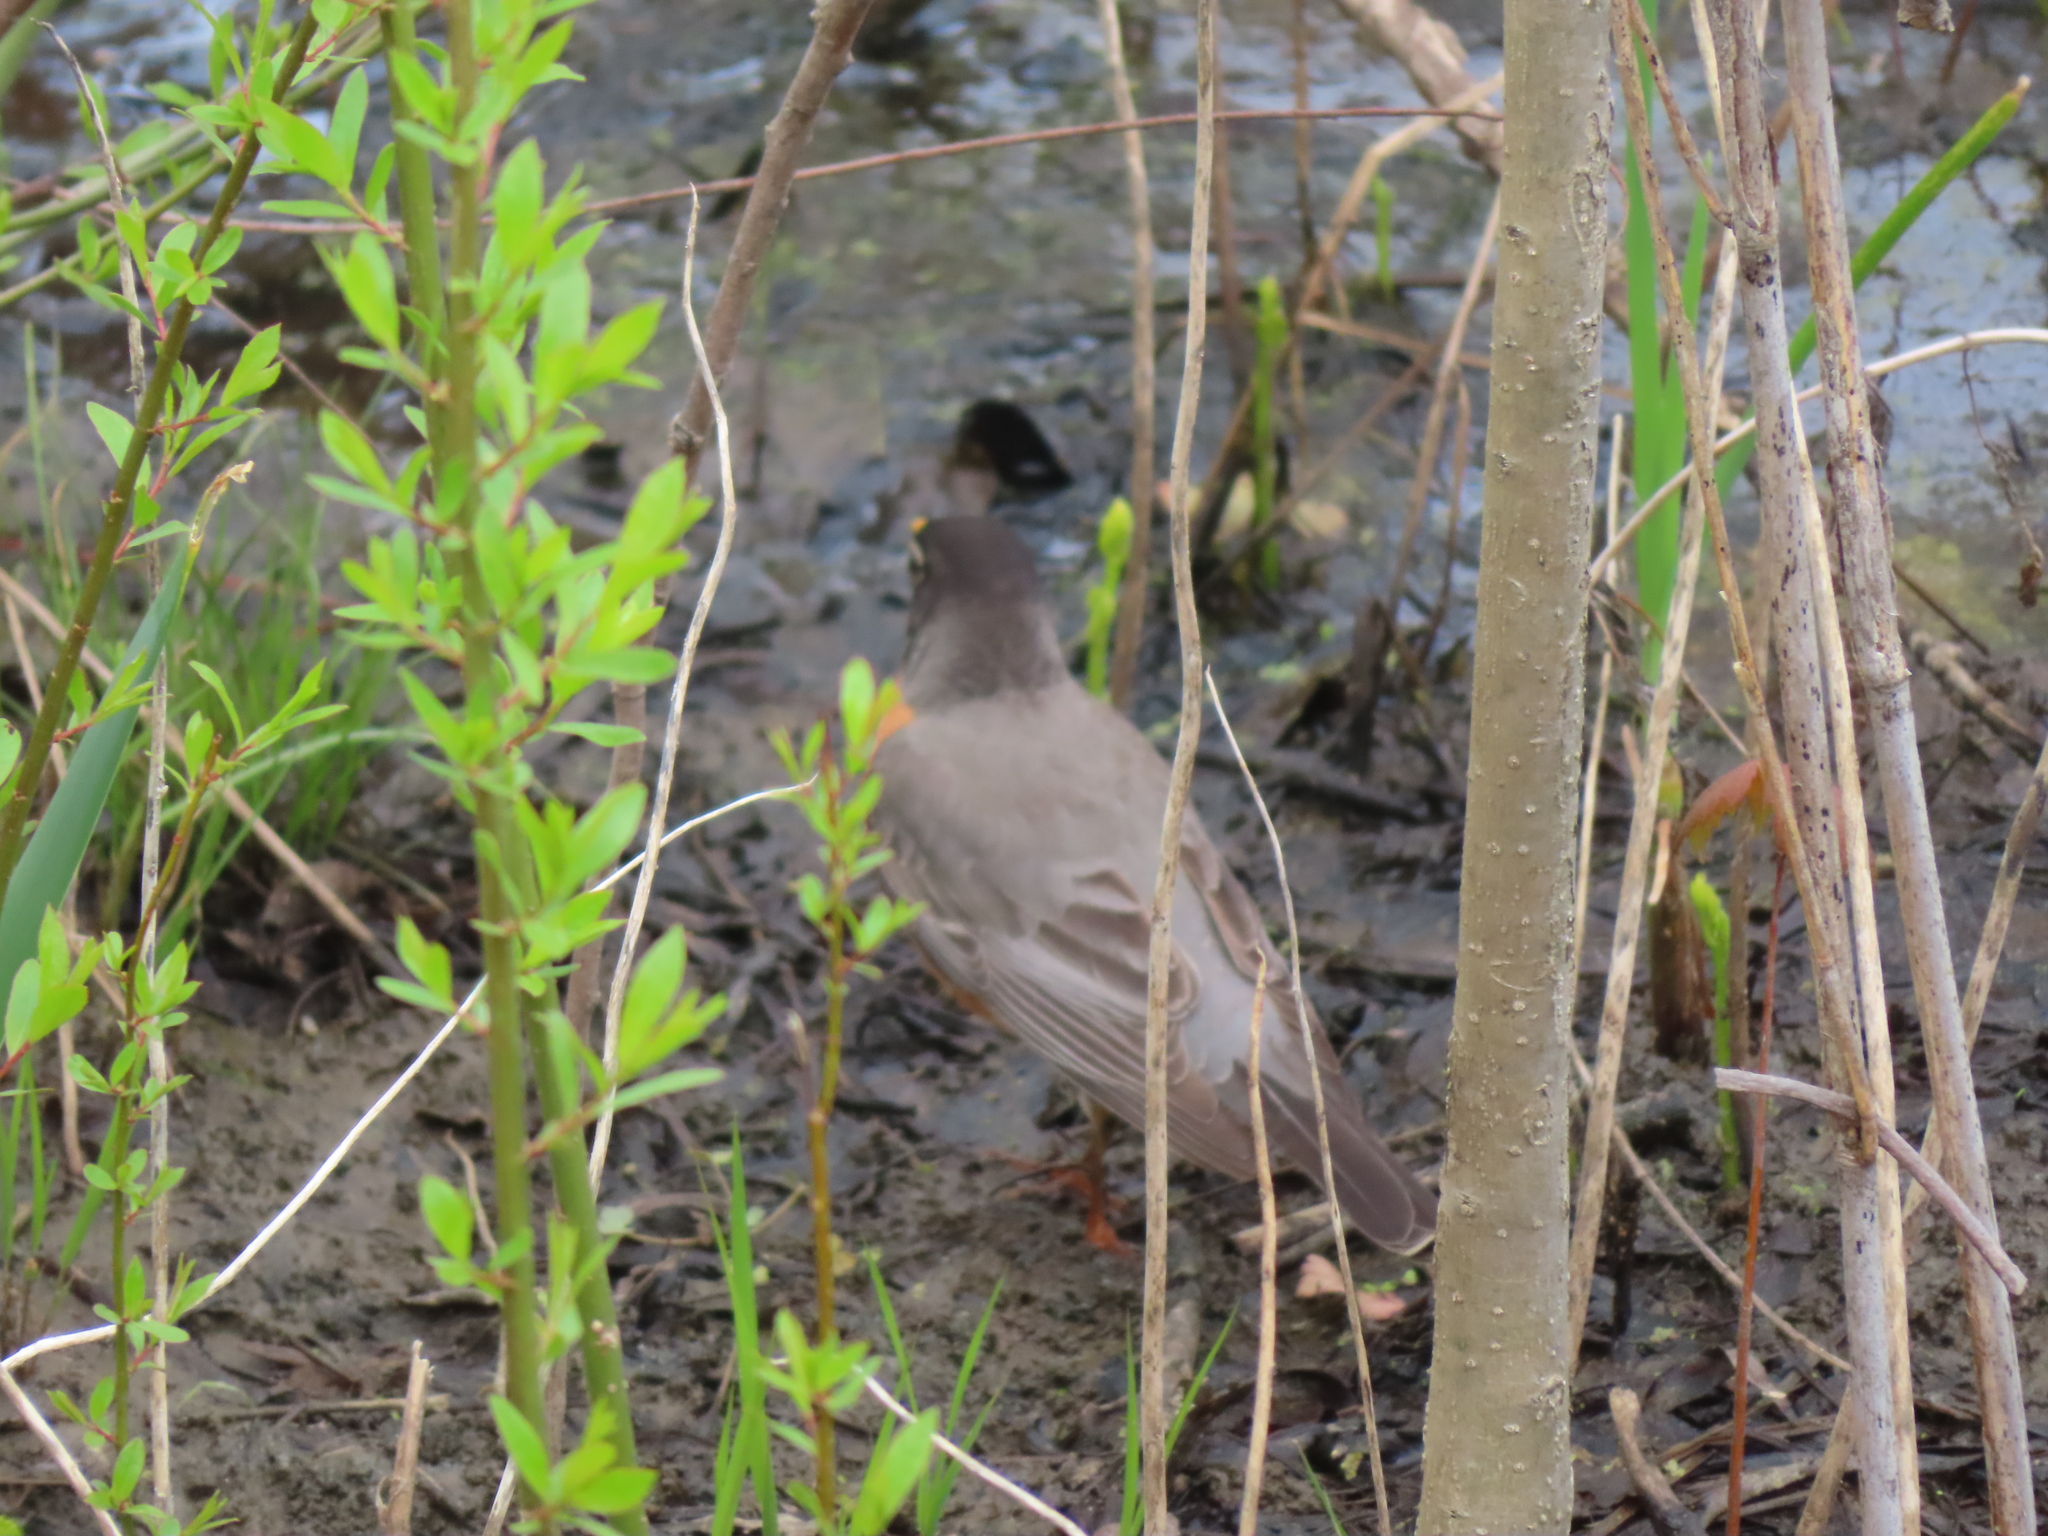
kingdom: Animalia
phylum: Chordata
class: Aves
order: Passeriformes
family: Turdidae
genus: Turdus
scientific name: Turdus migratorius
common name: American robin
